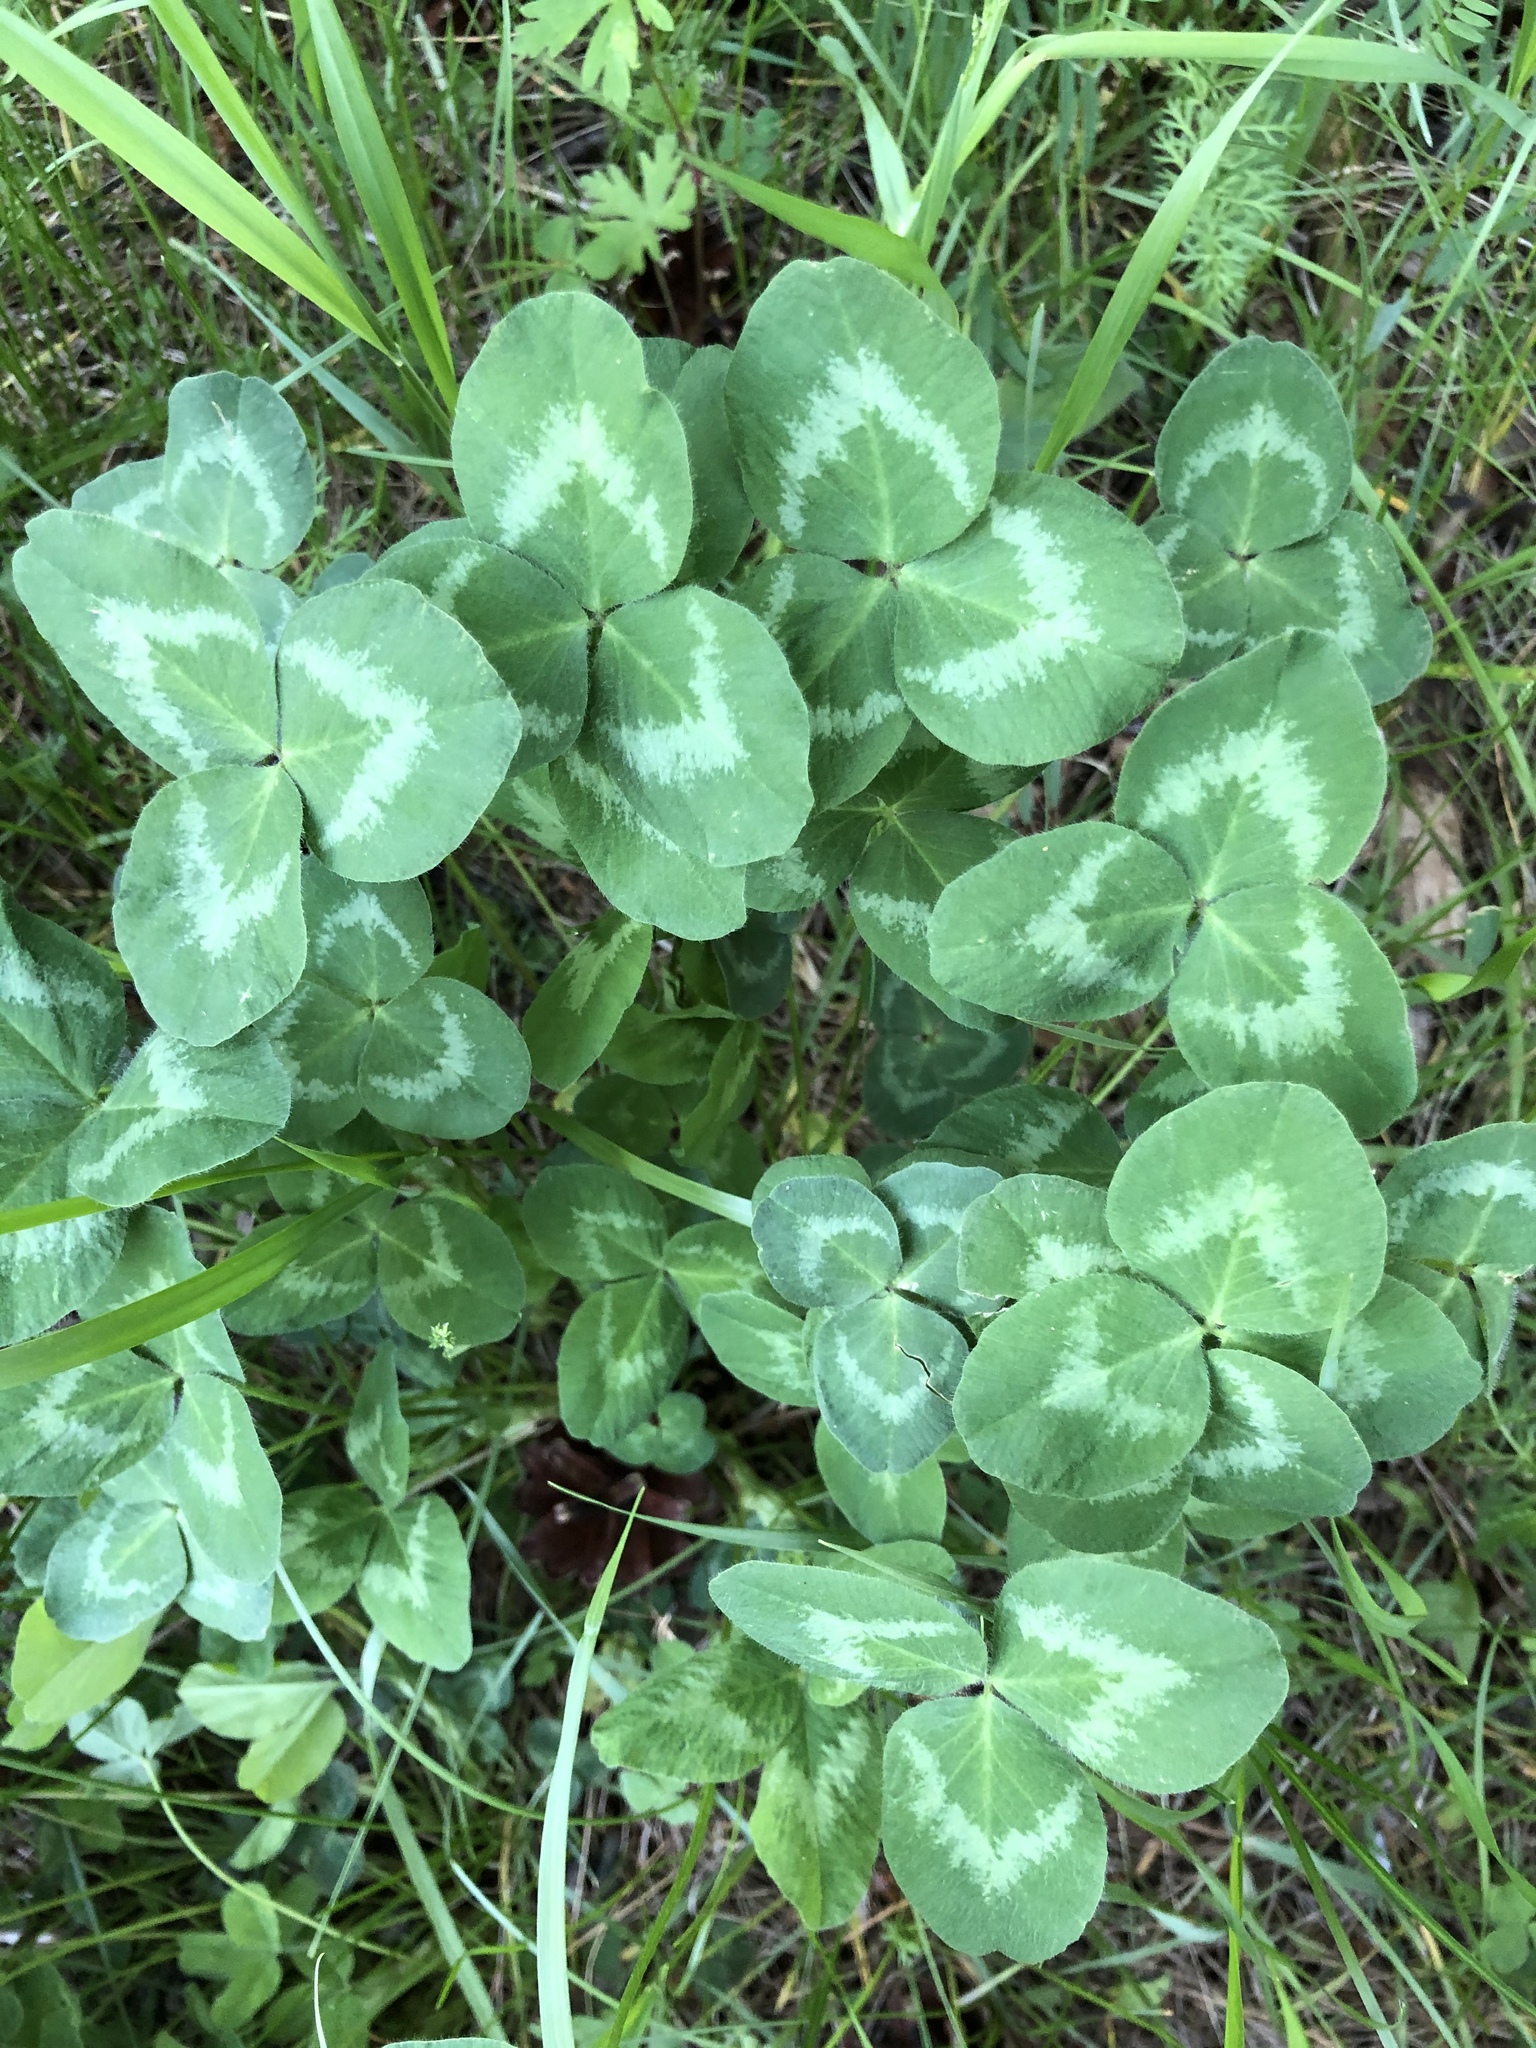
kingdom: Plantae
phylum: Tracheophyta
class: Magnoliopsida
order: Fabales
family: Fabaceae
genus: Trifolium
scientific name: Trifolium pratense
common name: Red clover
